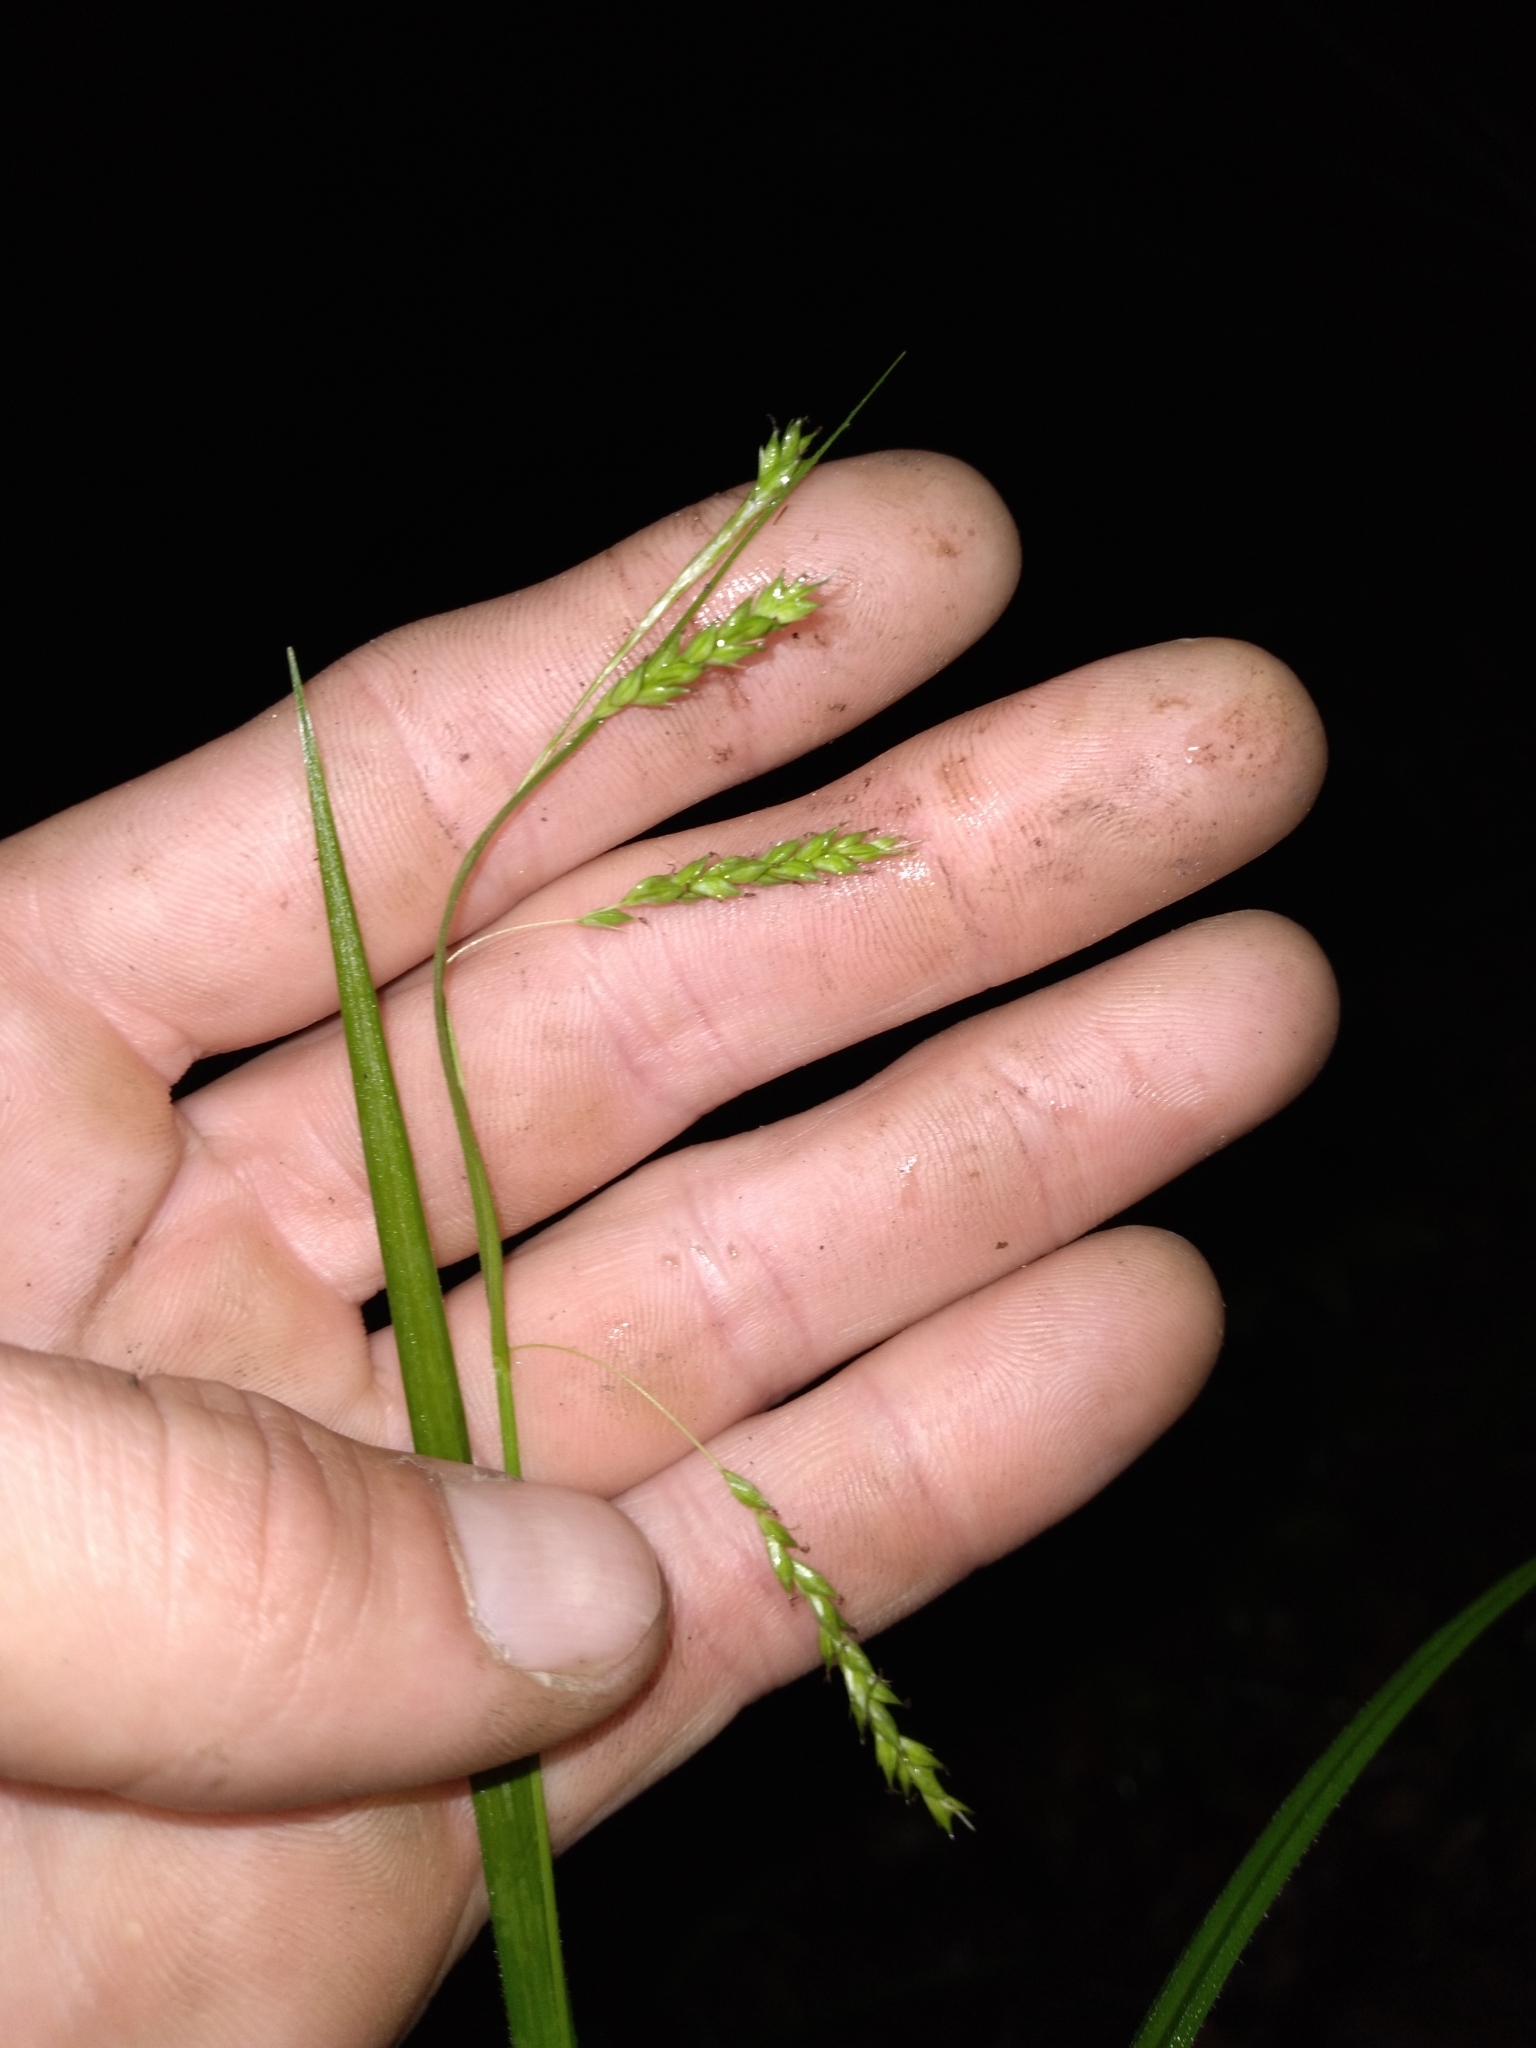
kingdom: Plantae
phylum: Tracheophyta
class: Liliopsida
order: Poales
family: Cyperaceae
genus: Carex
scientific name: Carex oxylepis
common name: Sharpscale sedge
